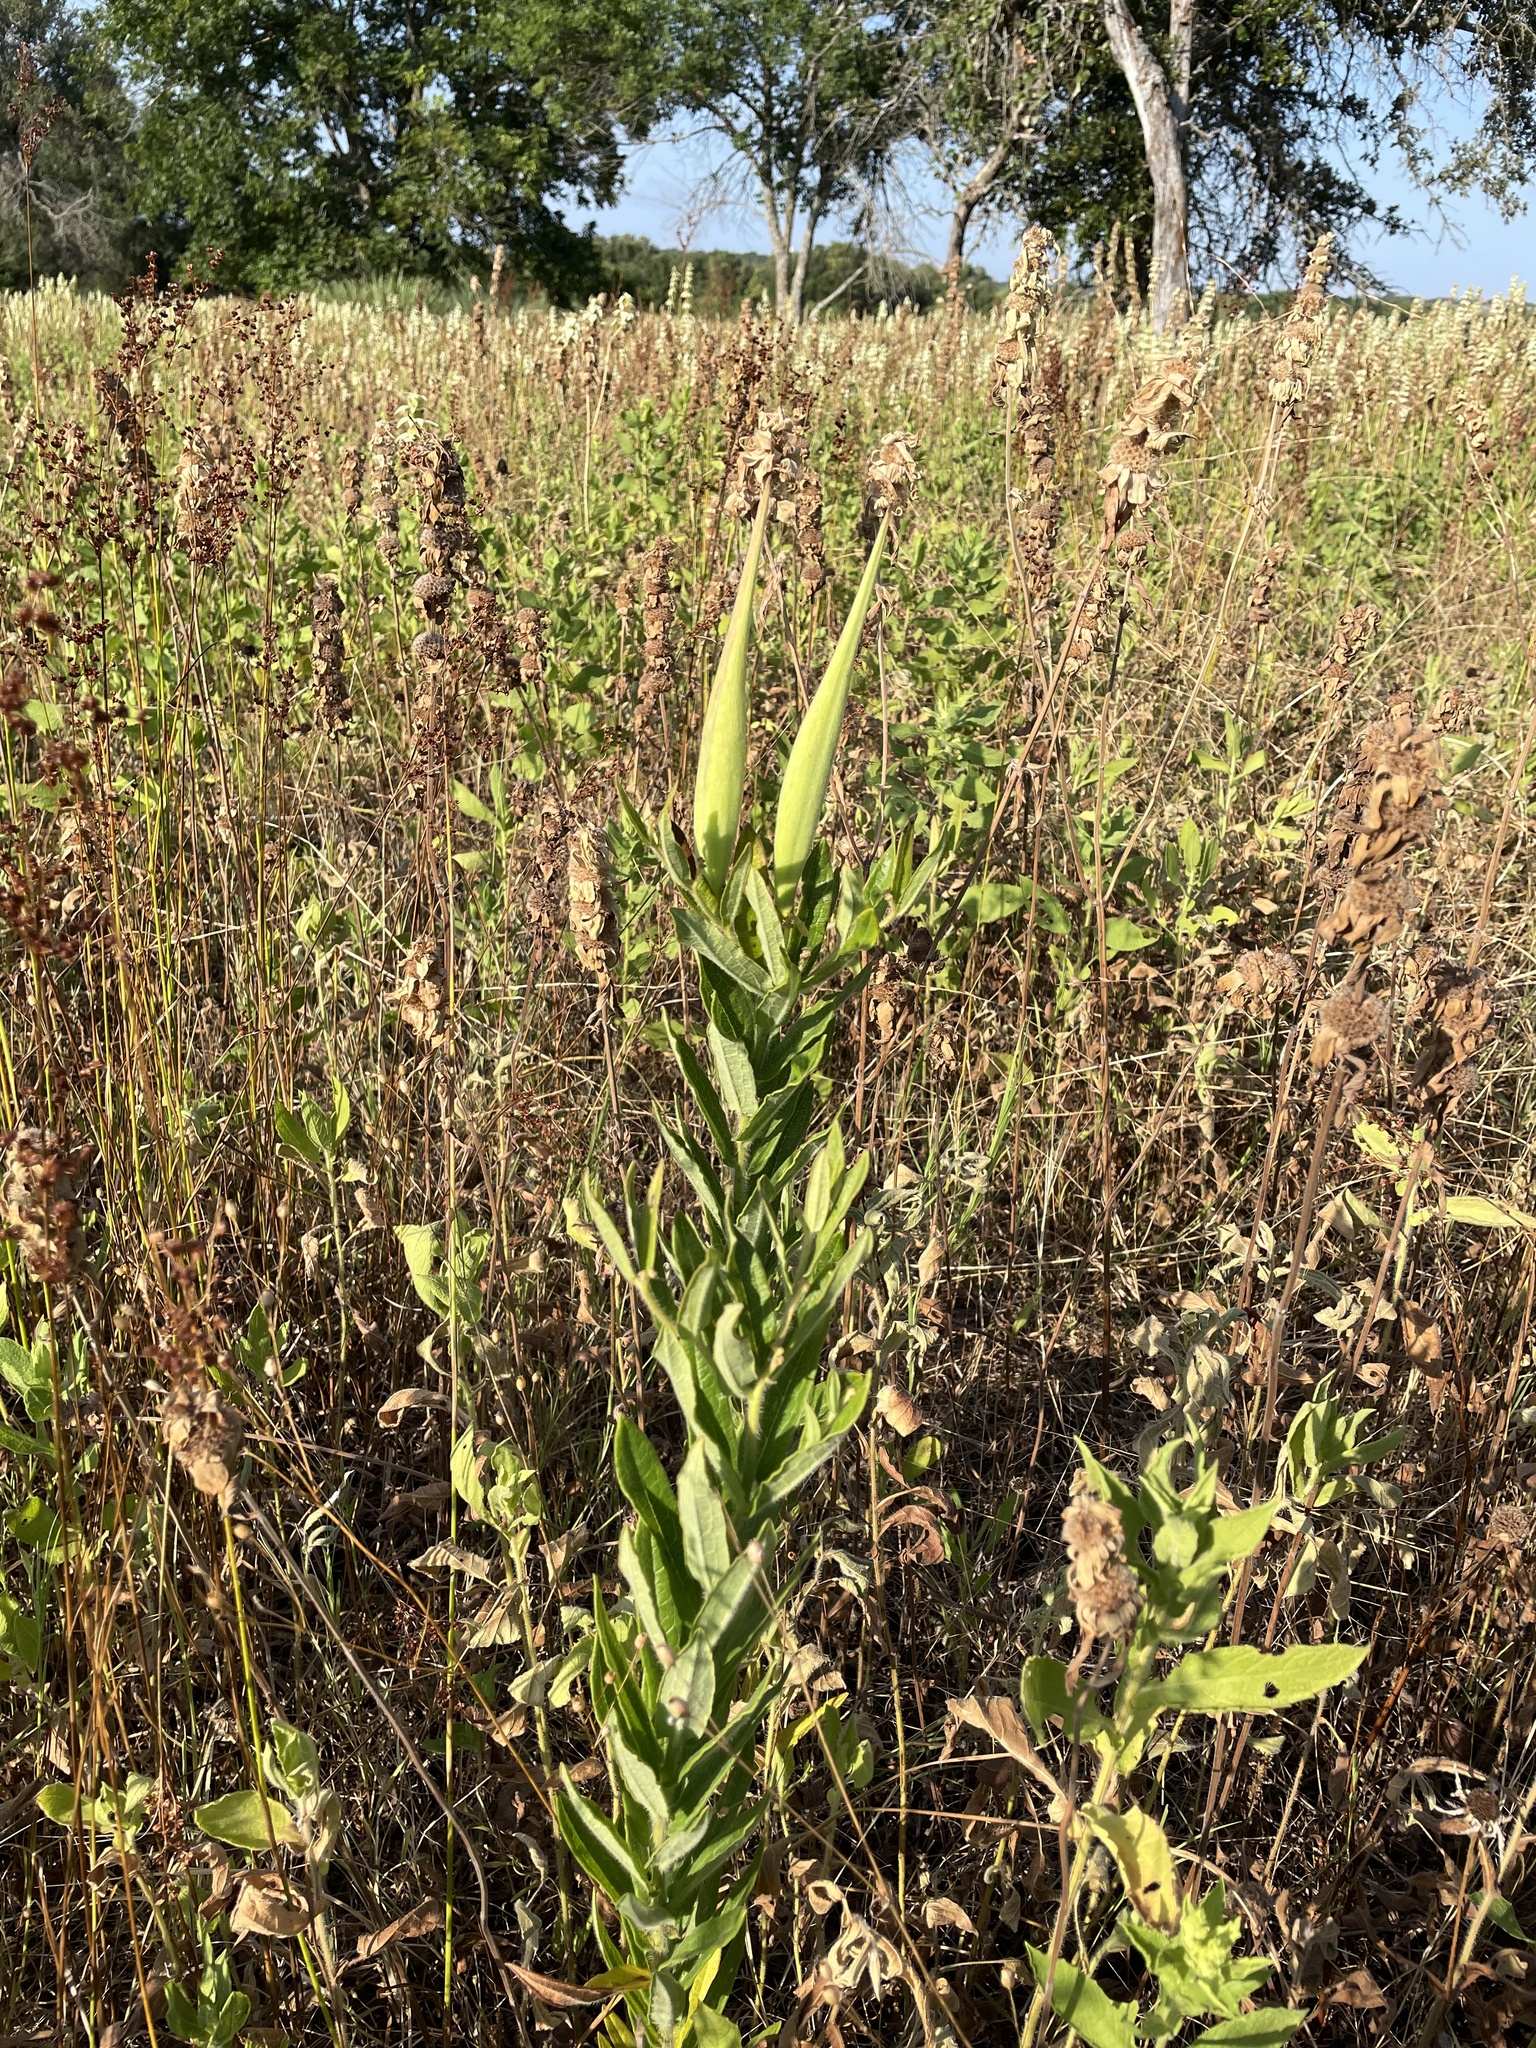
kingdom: Plantae
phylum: Tracheophyta
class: Magnoliopsida
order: Gentianales
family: Apocynaceae
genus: Asclepias
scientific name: Asclepias tuberosa
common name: Butterfly milkweed
